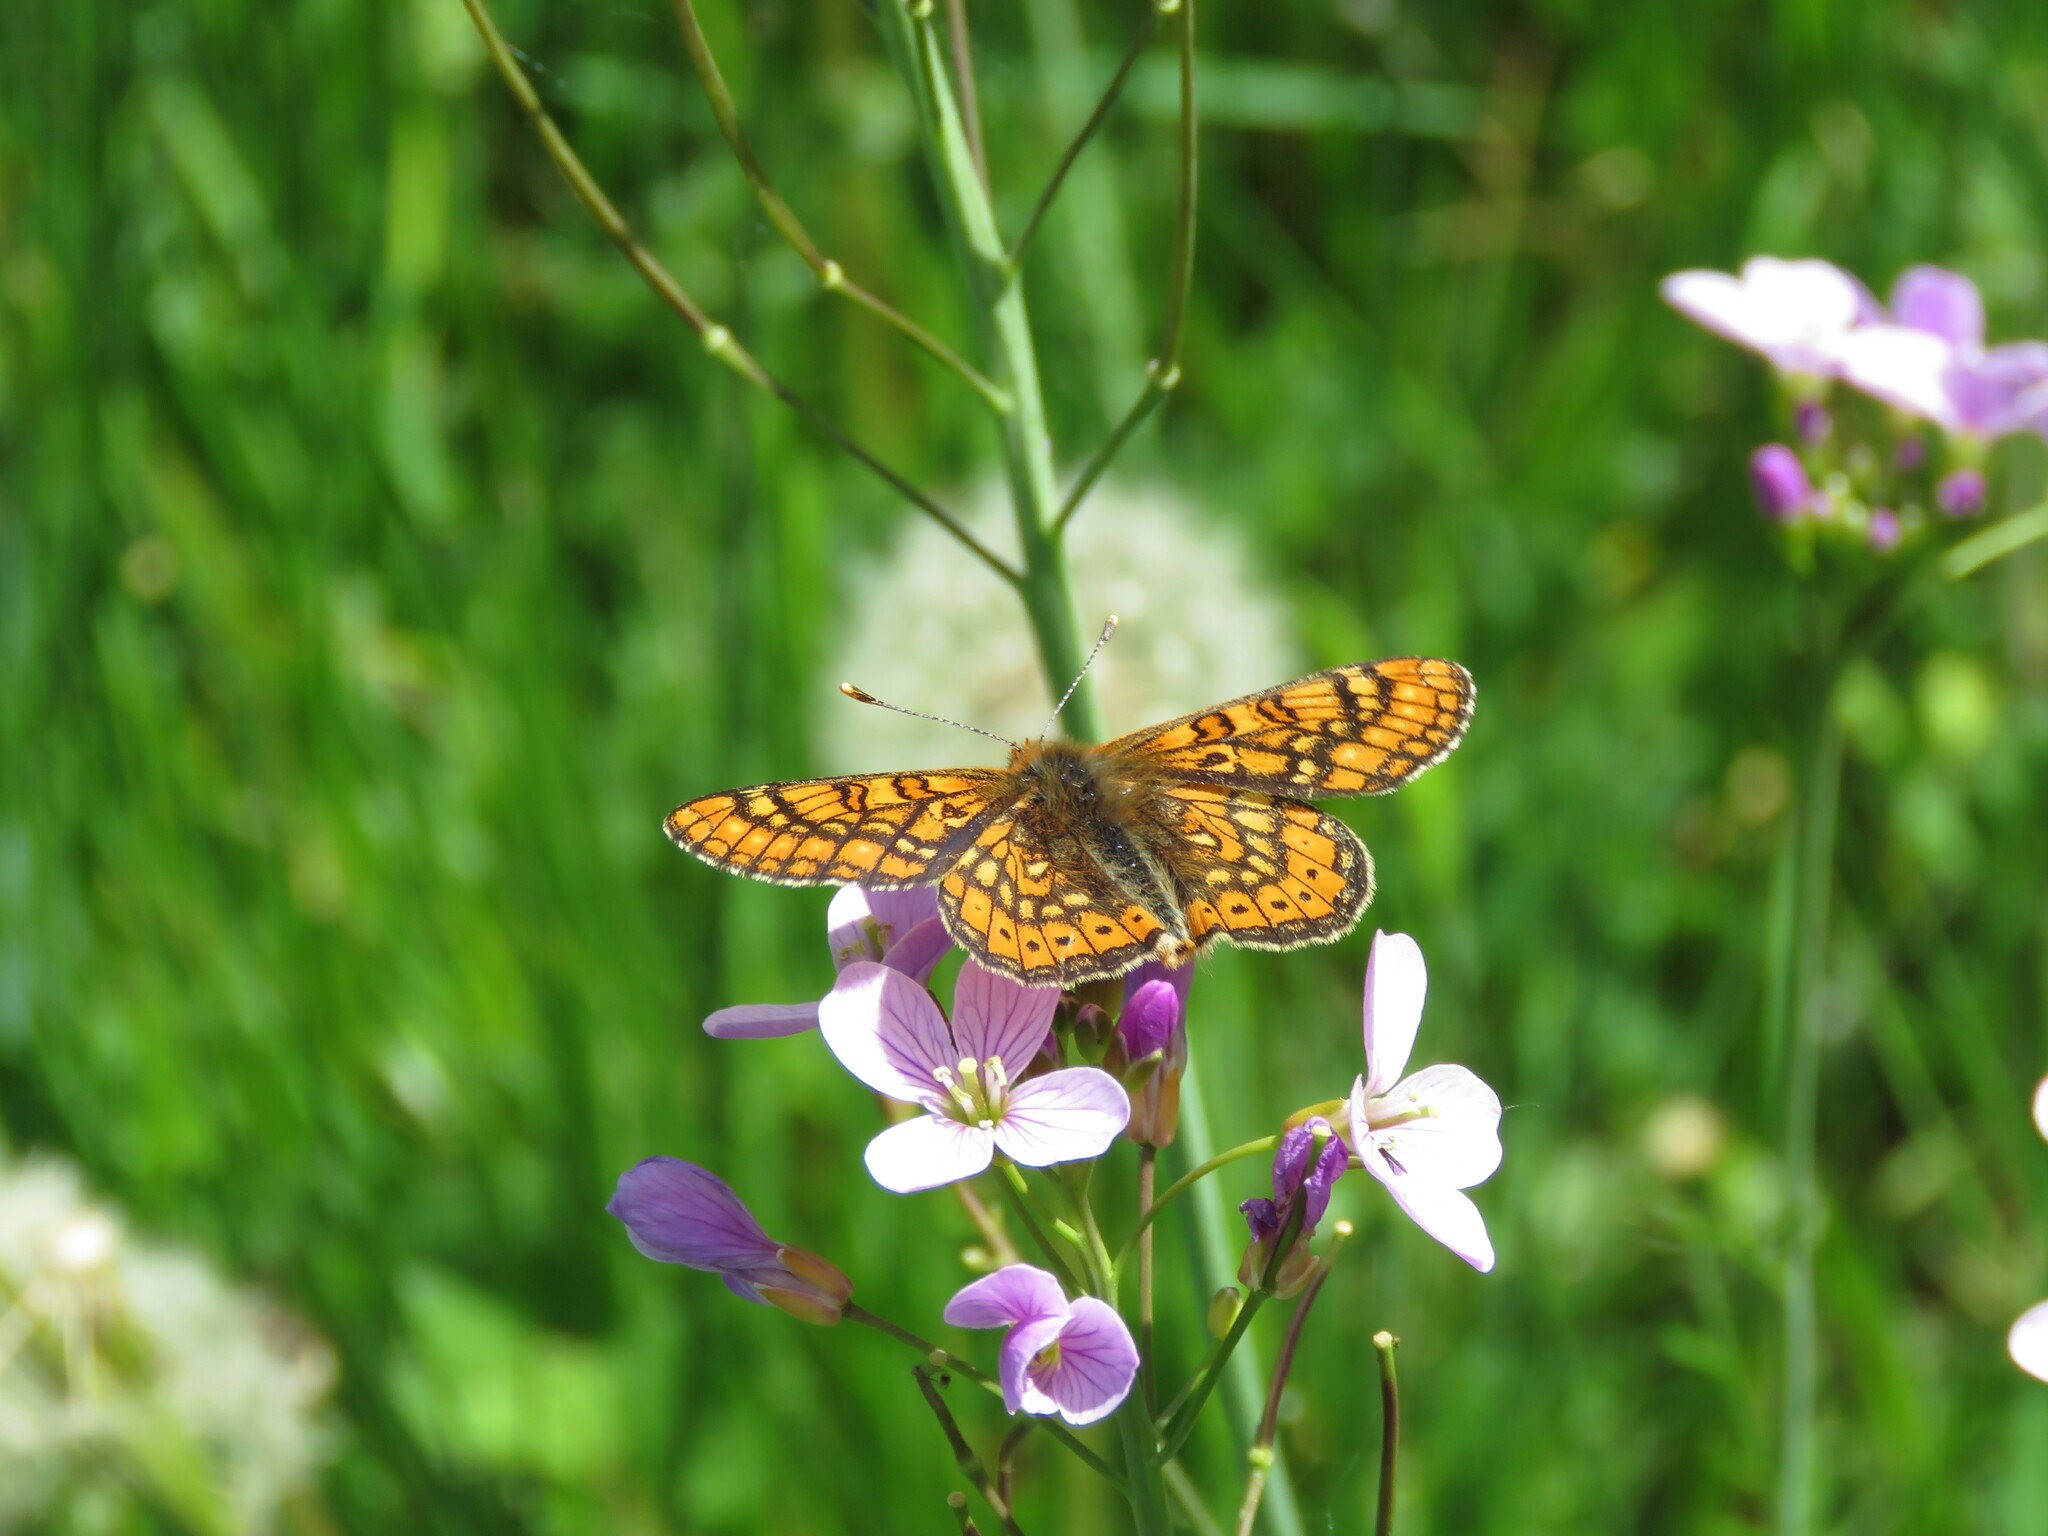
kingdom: Animalia
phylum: Arthropoda
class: Insecta
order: Lepidoptera
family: Nymphalidae
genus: Euphydryas
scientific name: Euphydryas aurinia
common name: Marsh fritillary
